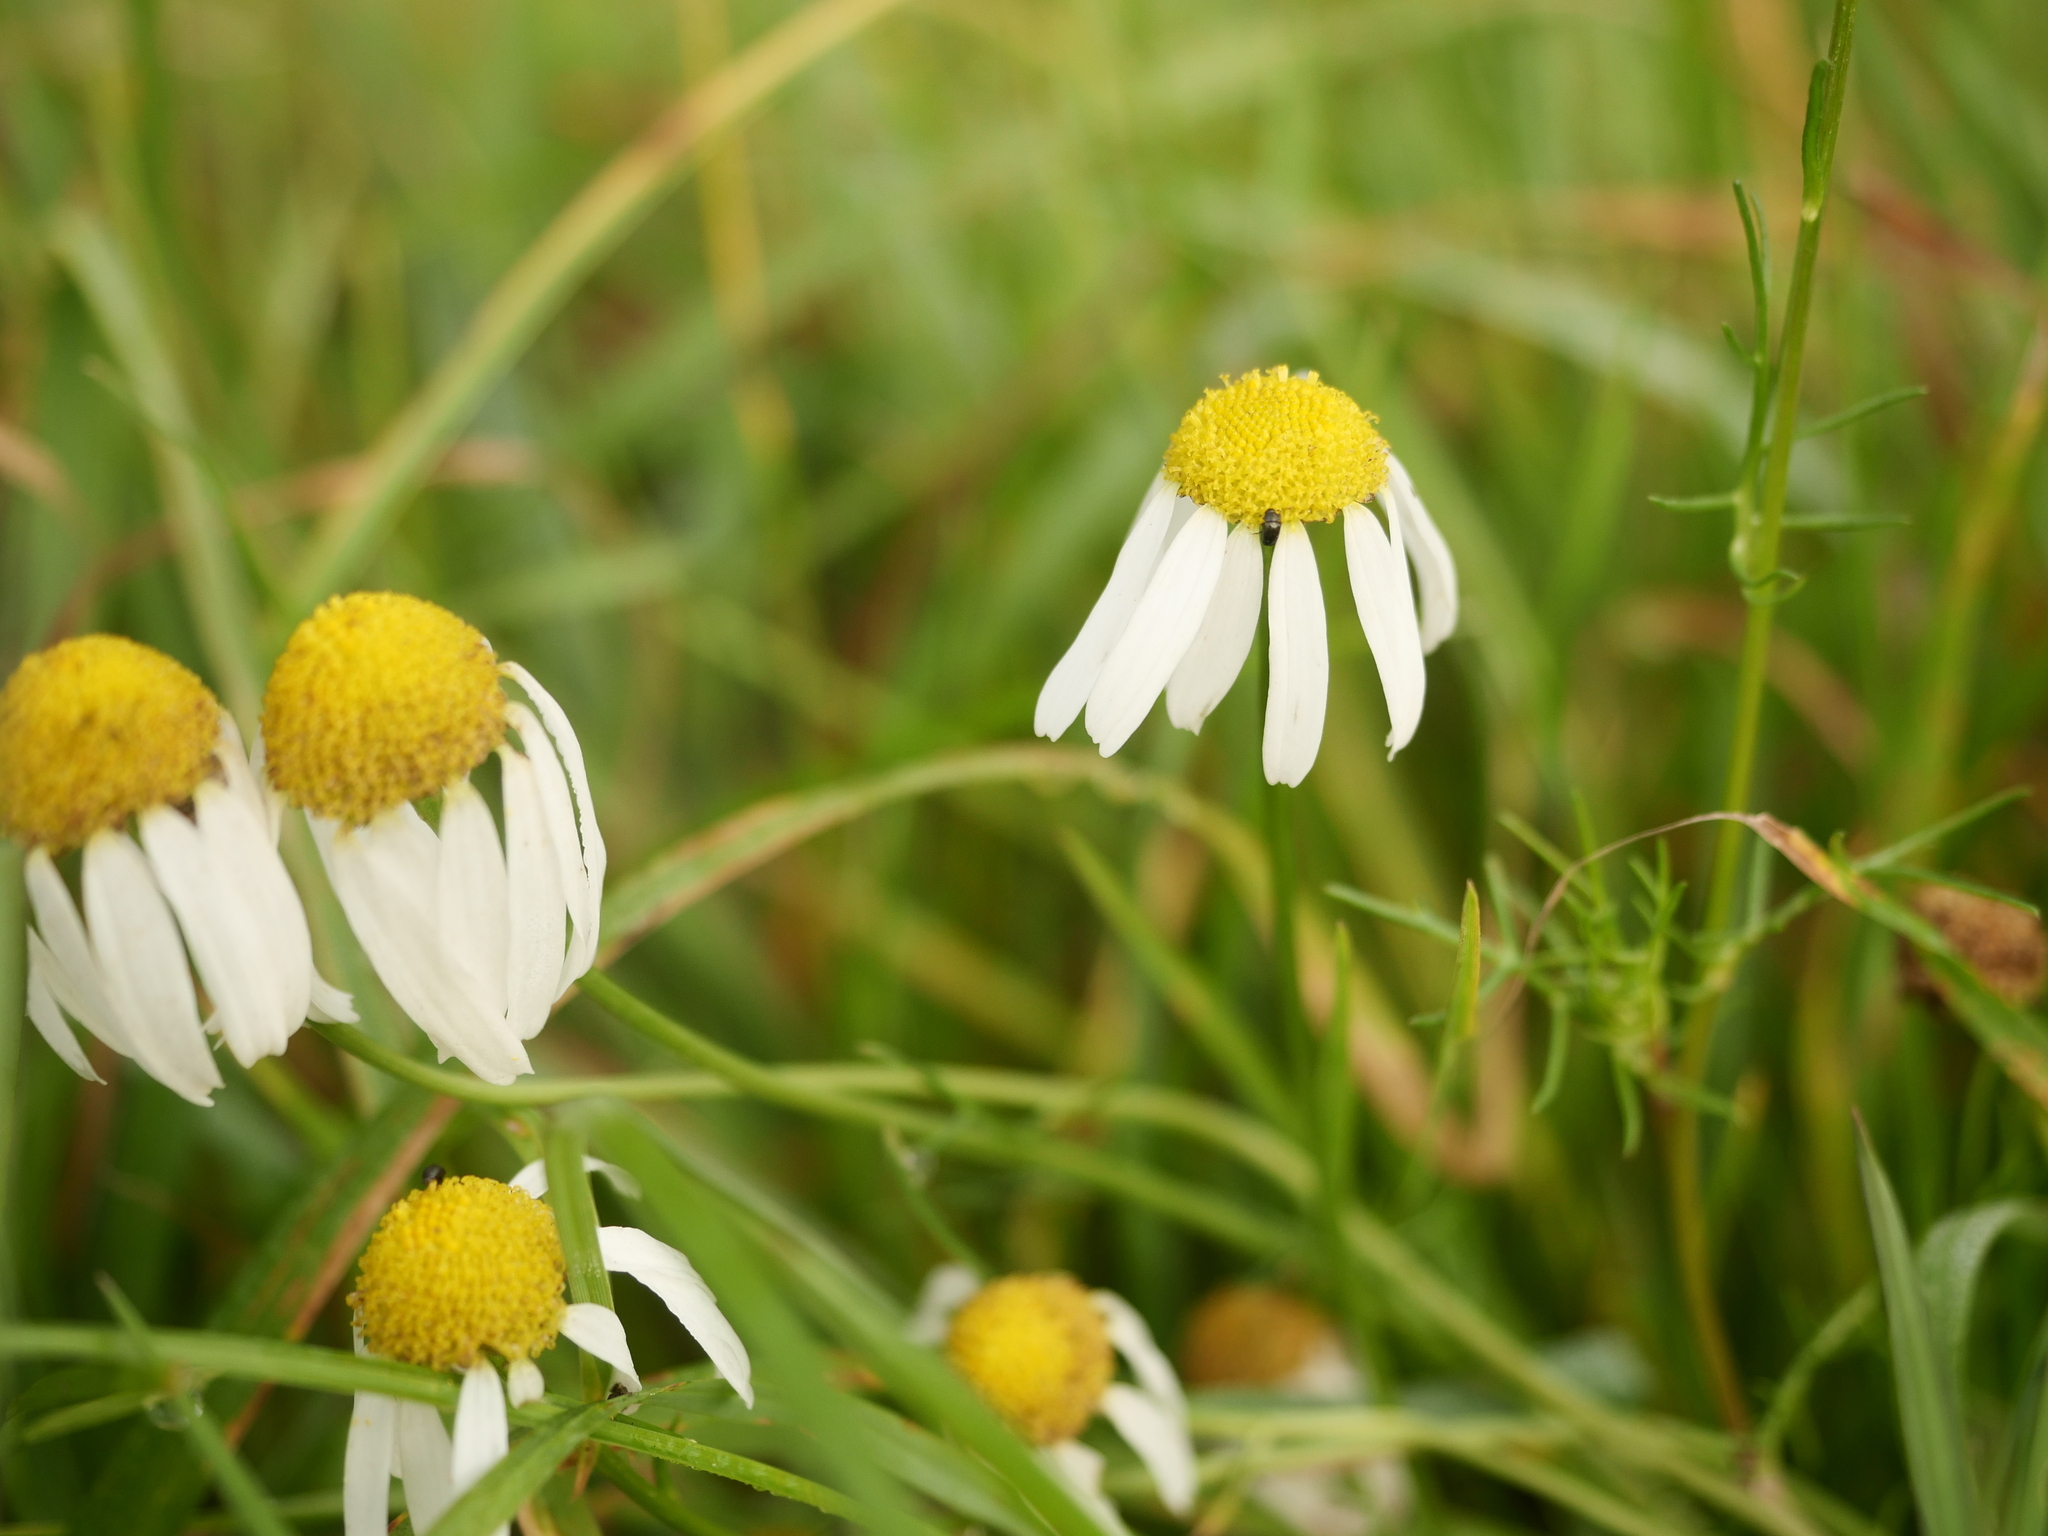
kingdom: Plantae
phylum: Tracheophyta
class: Magnoliopsida
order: Asterales
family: Asteraceae
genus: Matricaria
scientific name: Matricaria chamomilla
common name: Scented mayweed
